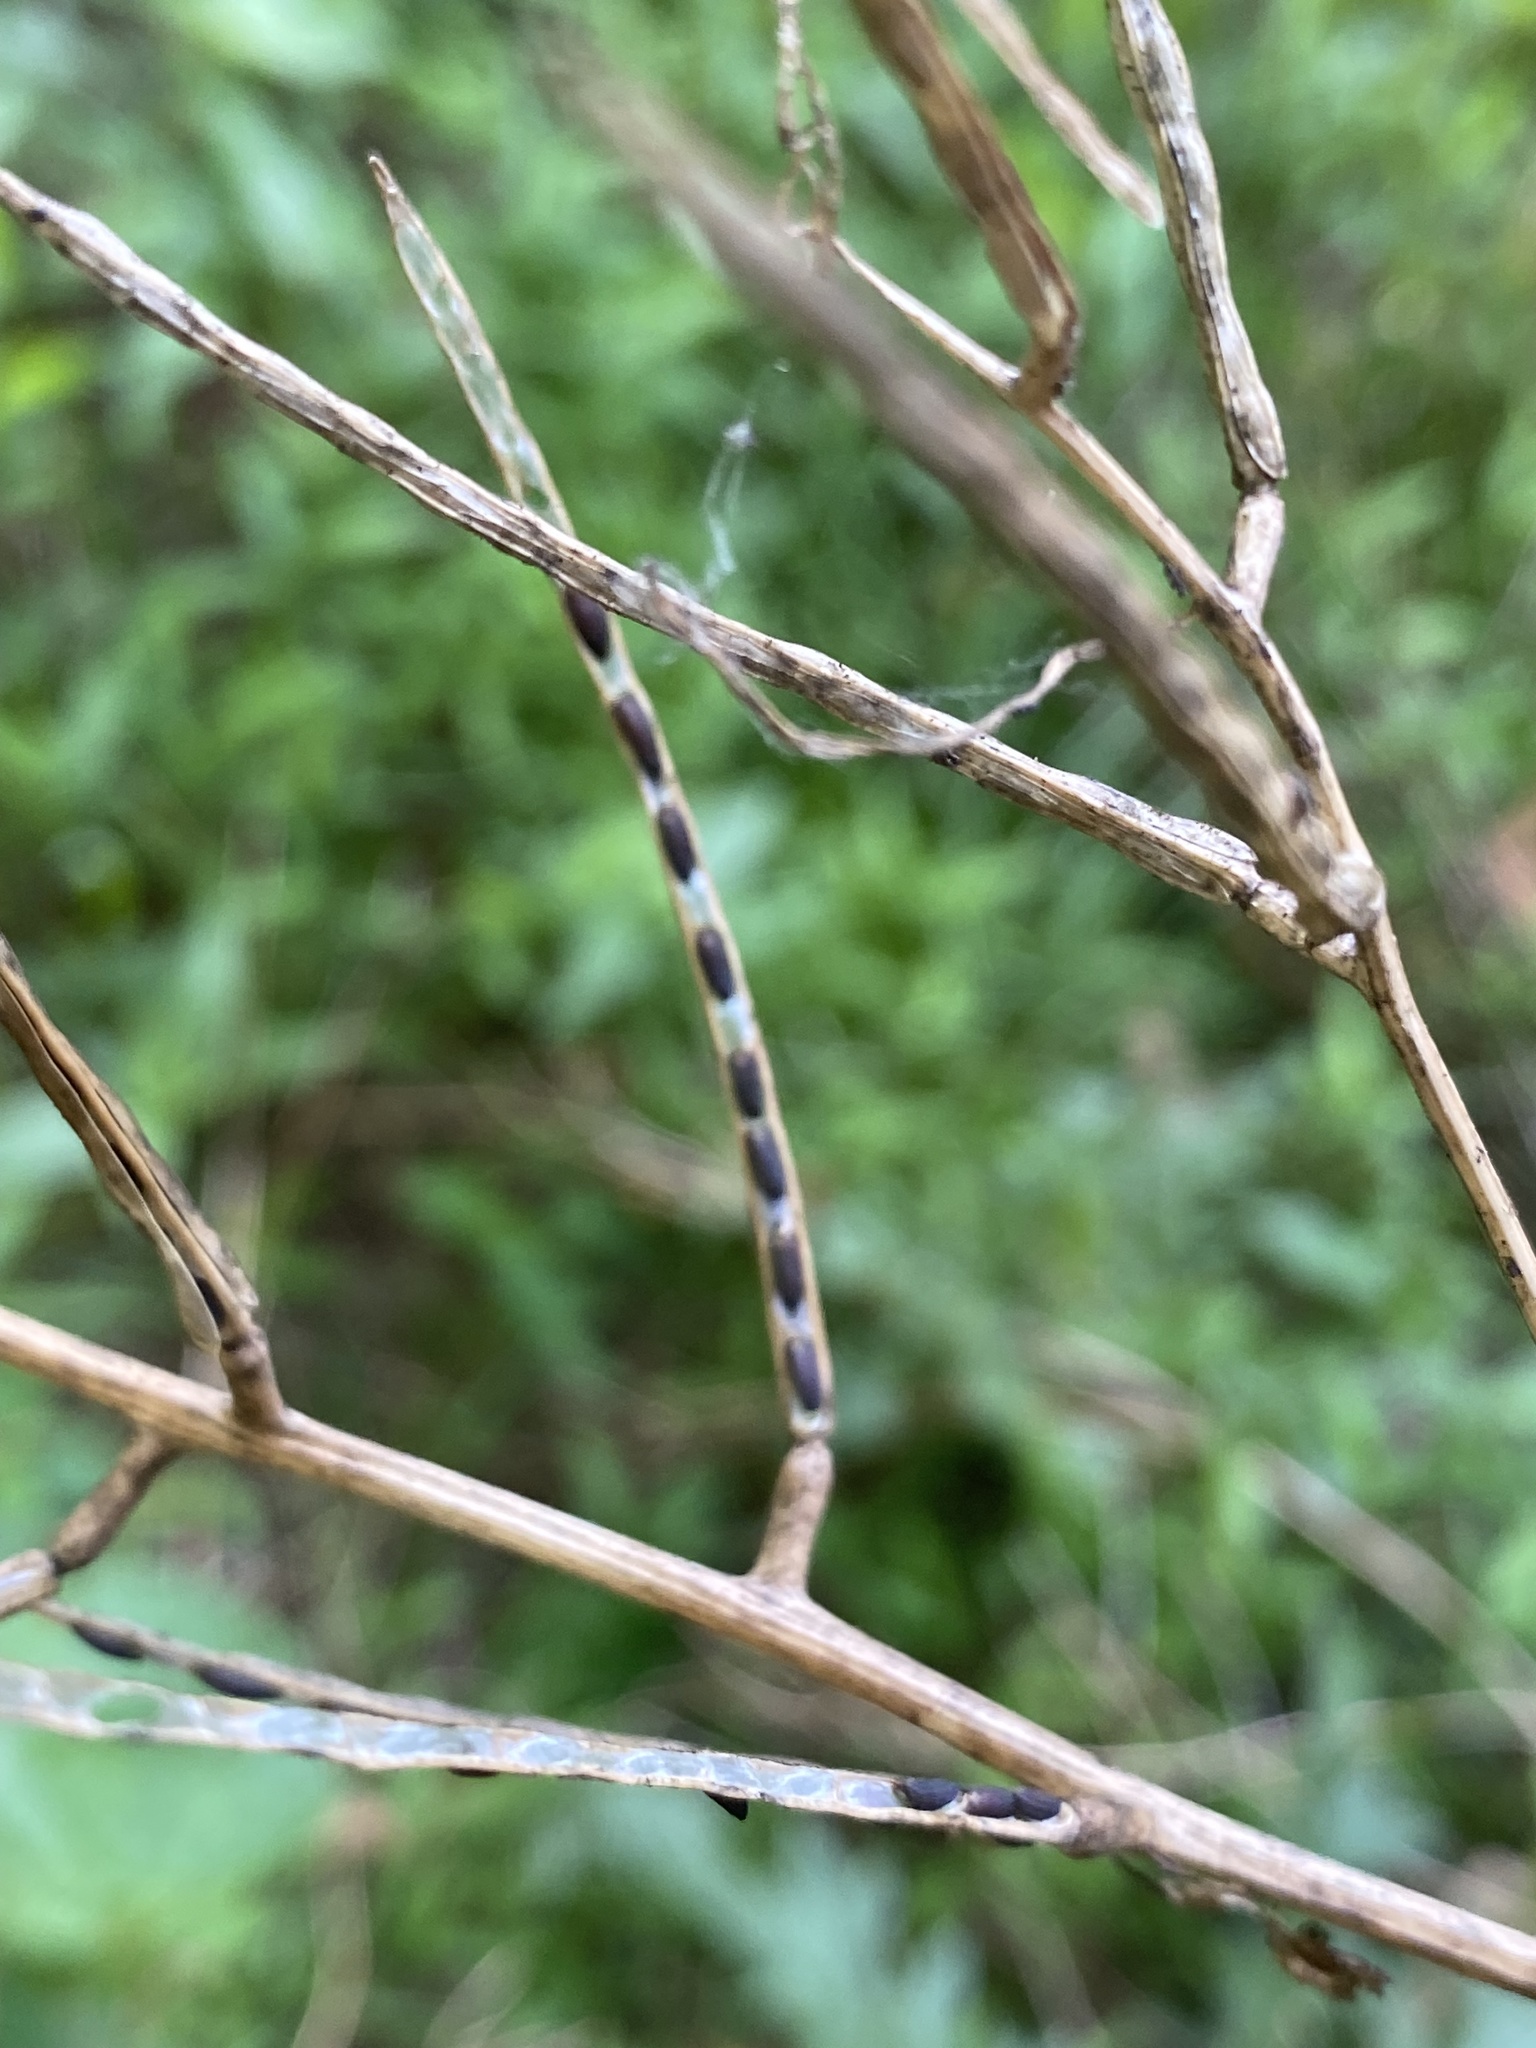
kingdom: Plantae
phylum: Tracheophyta
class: Magnoliopsida
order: Brassicales
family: Brassicaceae
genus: Alliaria
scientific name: Alliaria petiolata
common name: Garlic mustard
